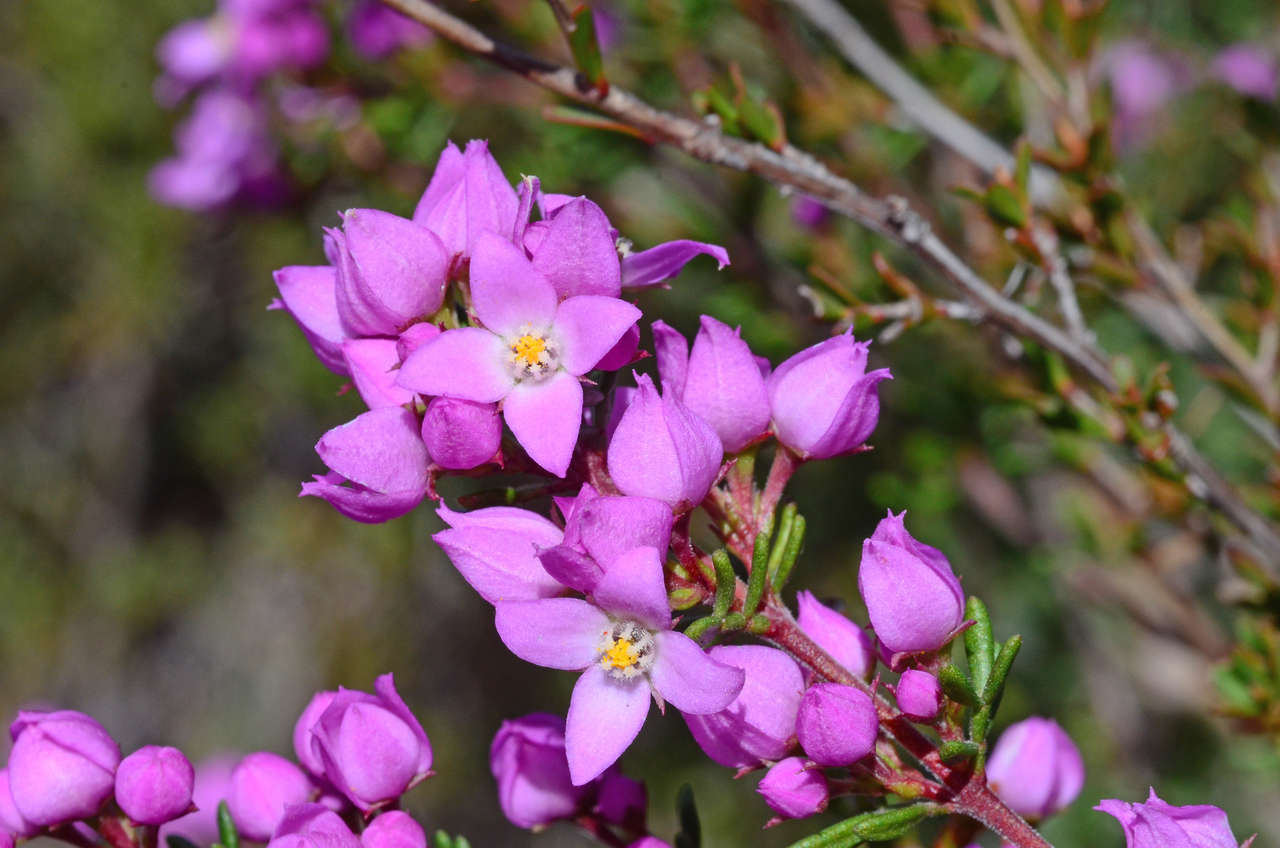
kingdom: Plantae
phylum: Tracheophyta
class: Magnoliopsida
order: Sapindales
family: Rutaceae
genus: Boronia
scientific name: Boronia pilosa
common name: Hairy boronia
